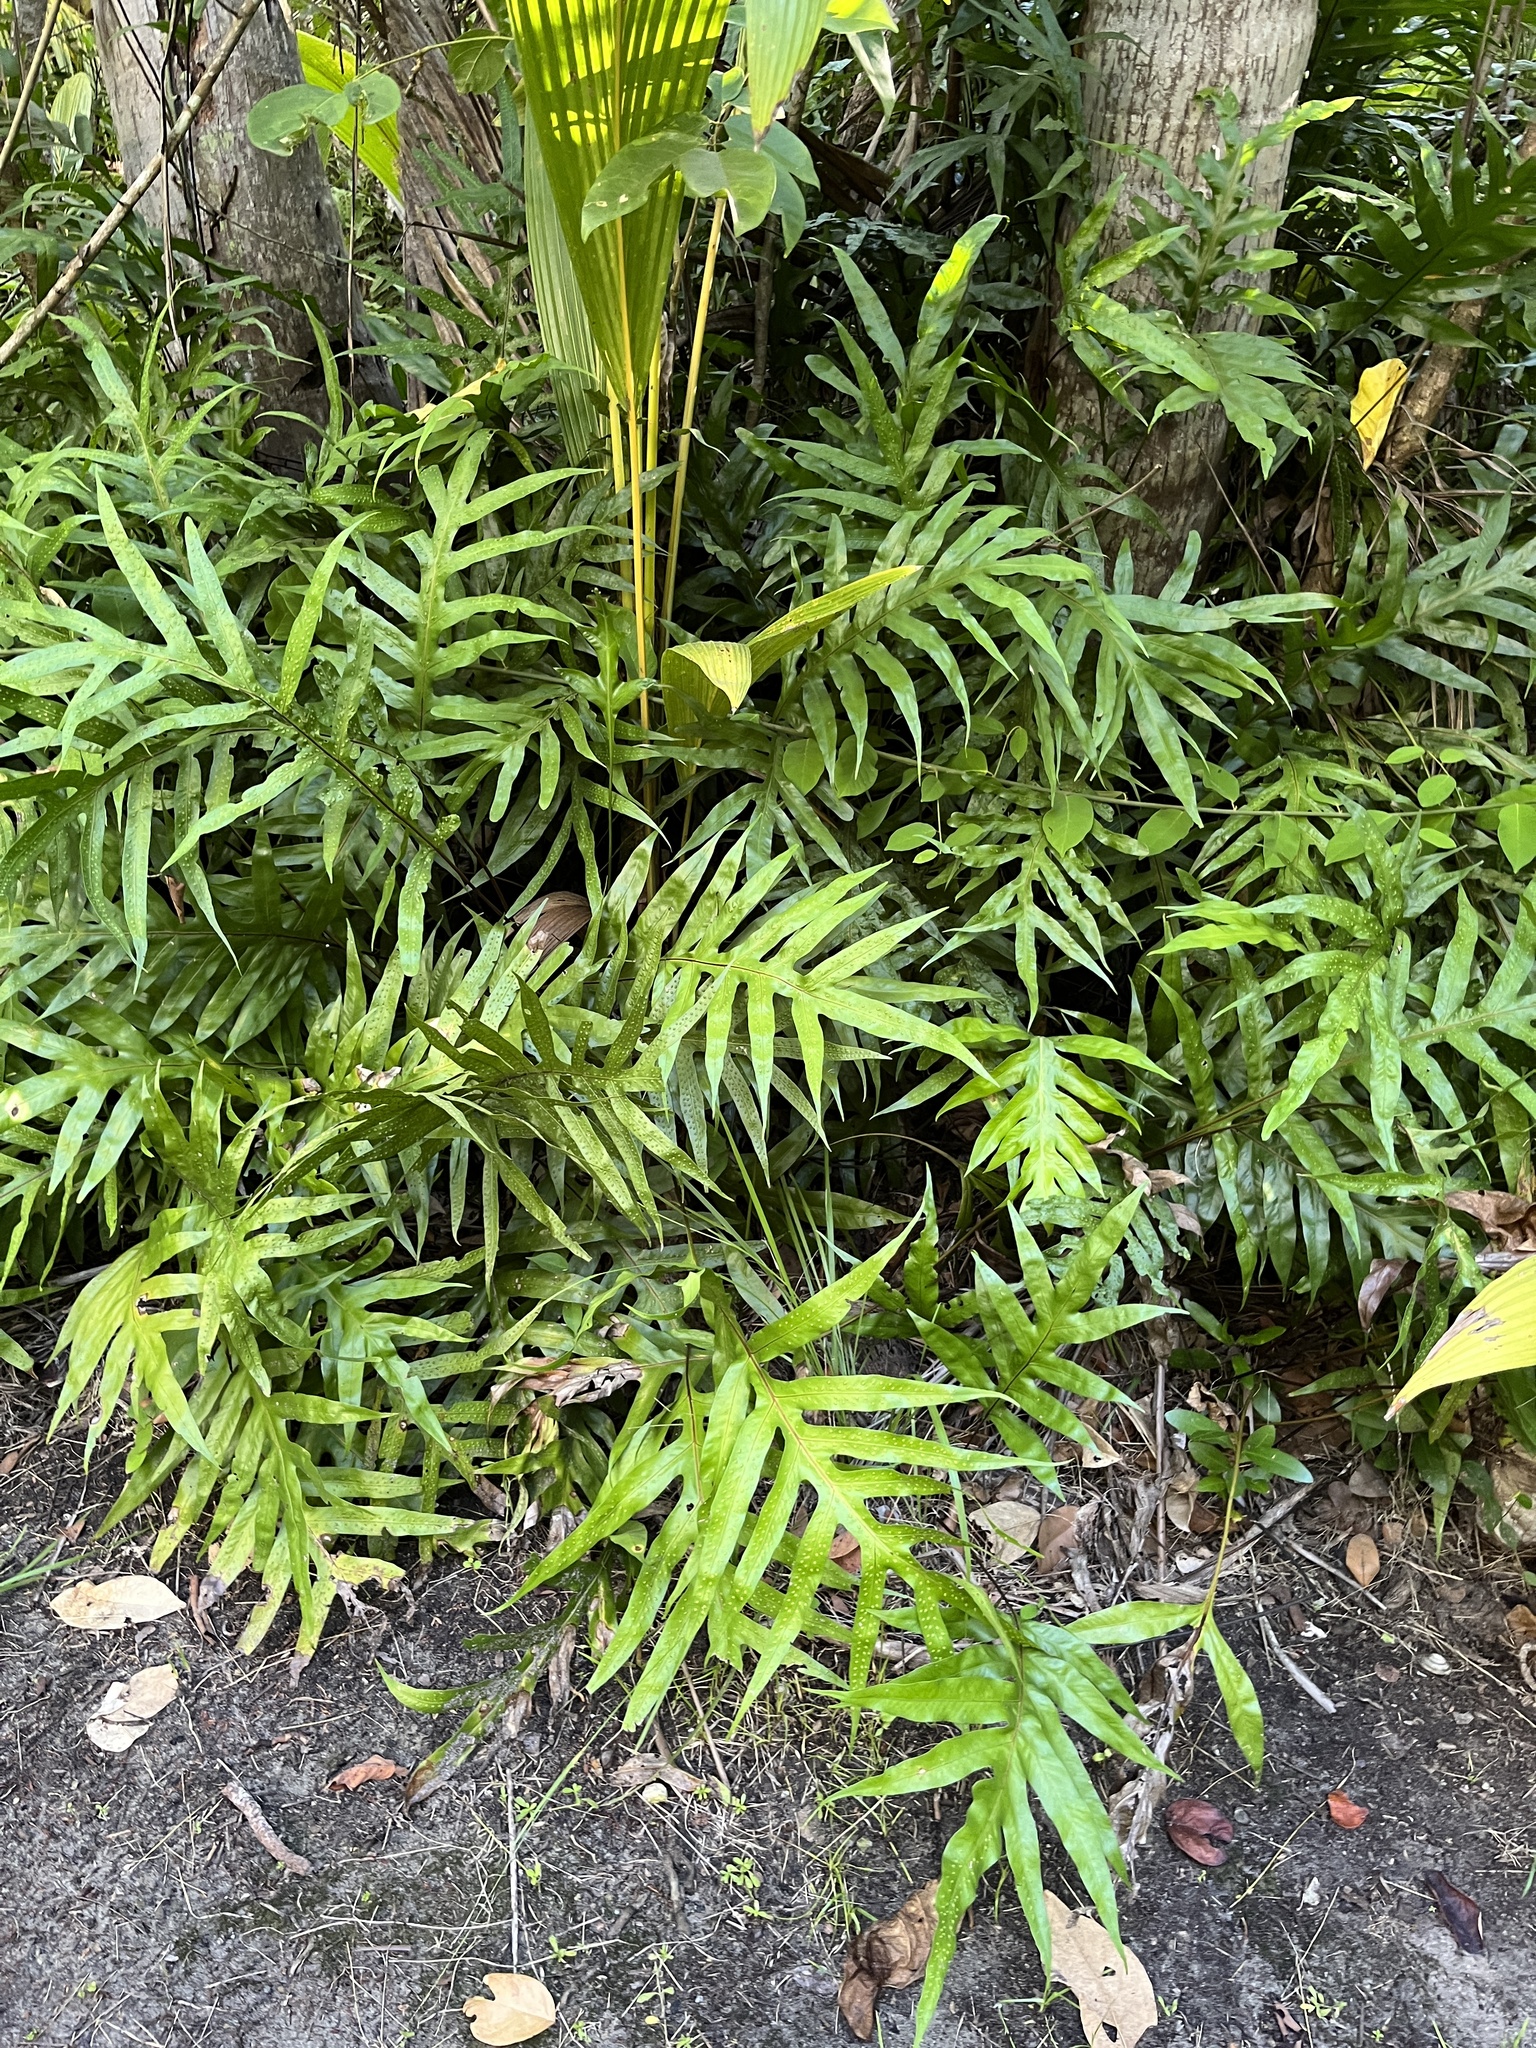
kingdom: Plantae
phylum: Tracheophyta
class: Polypodiopsida
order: Polypodiales
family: Polypodiaceae
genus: Microsorum
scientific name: Microsorum scolopendria
